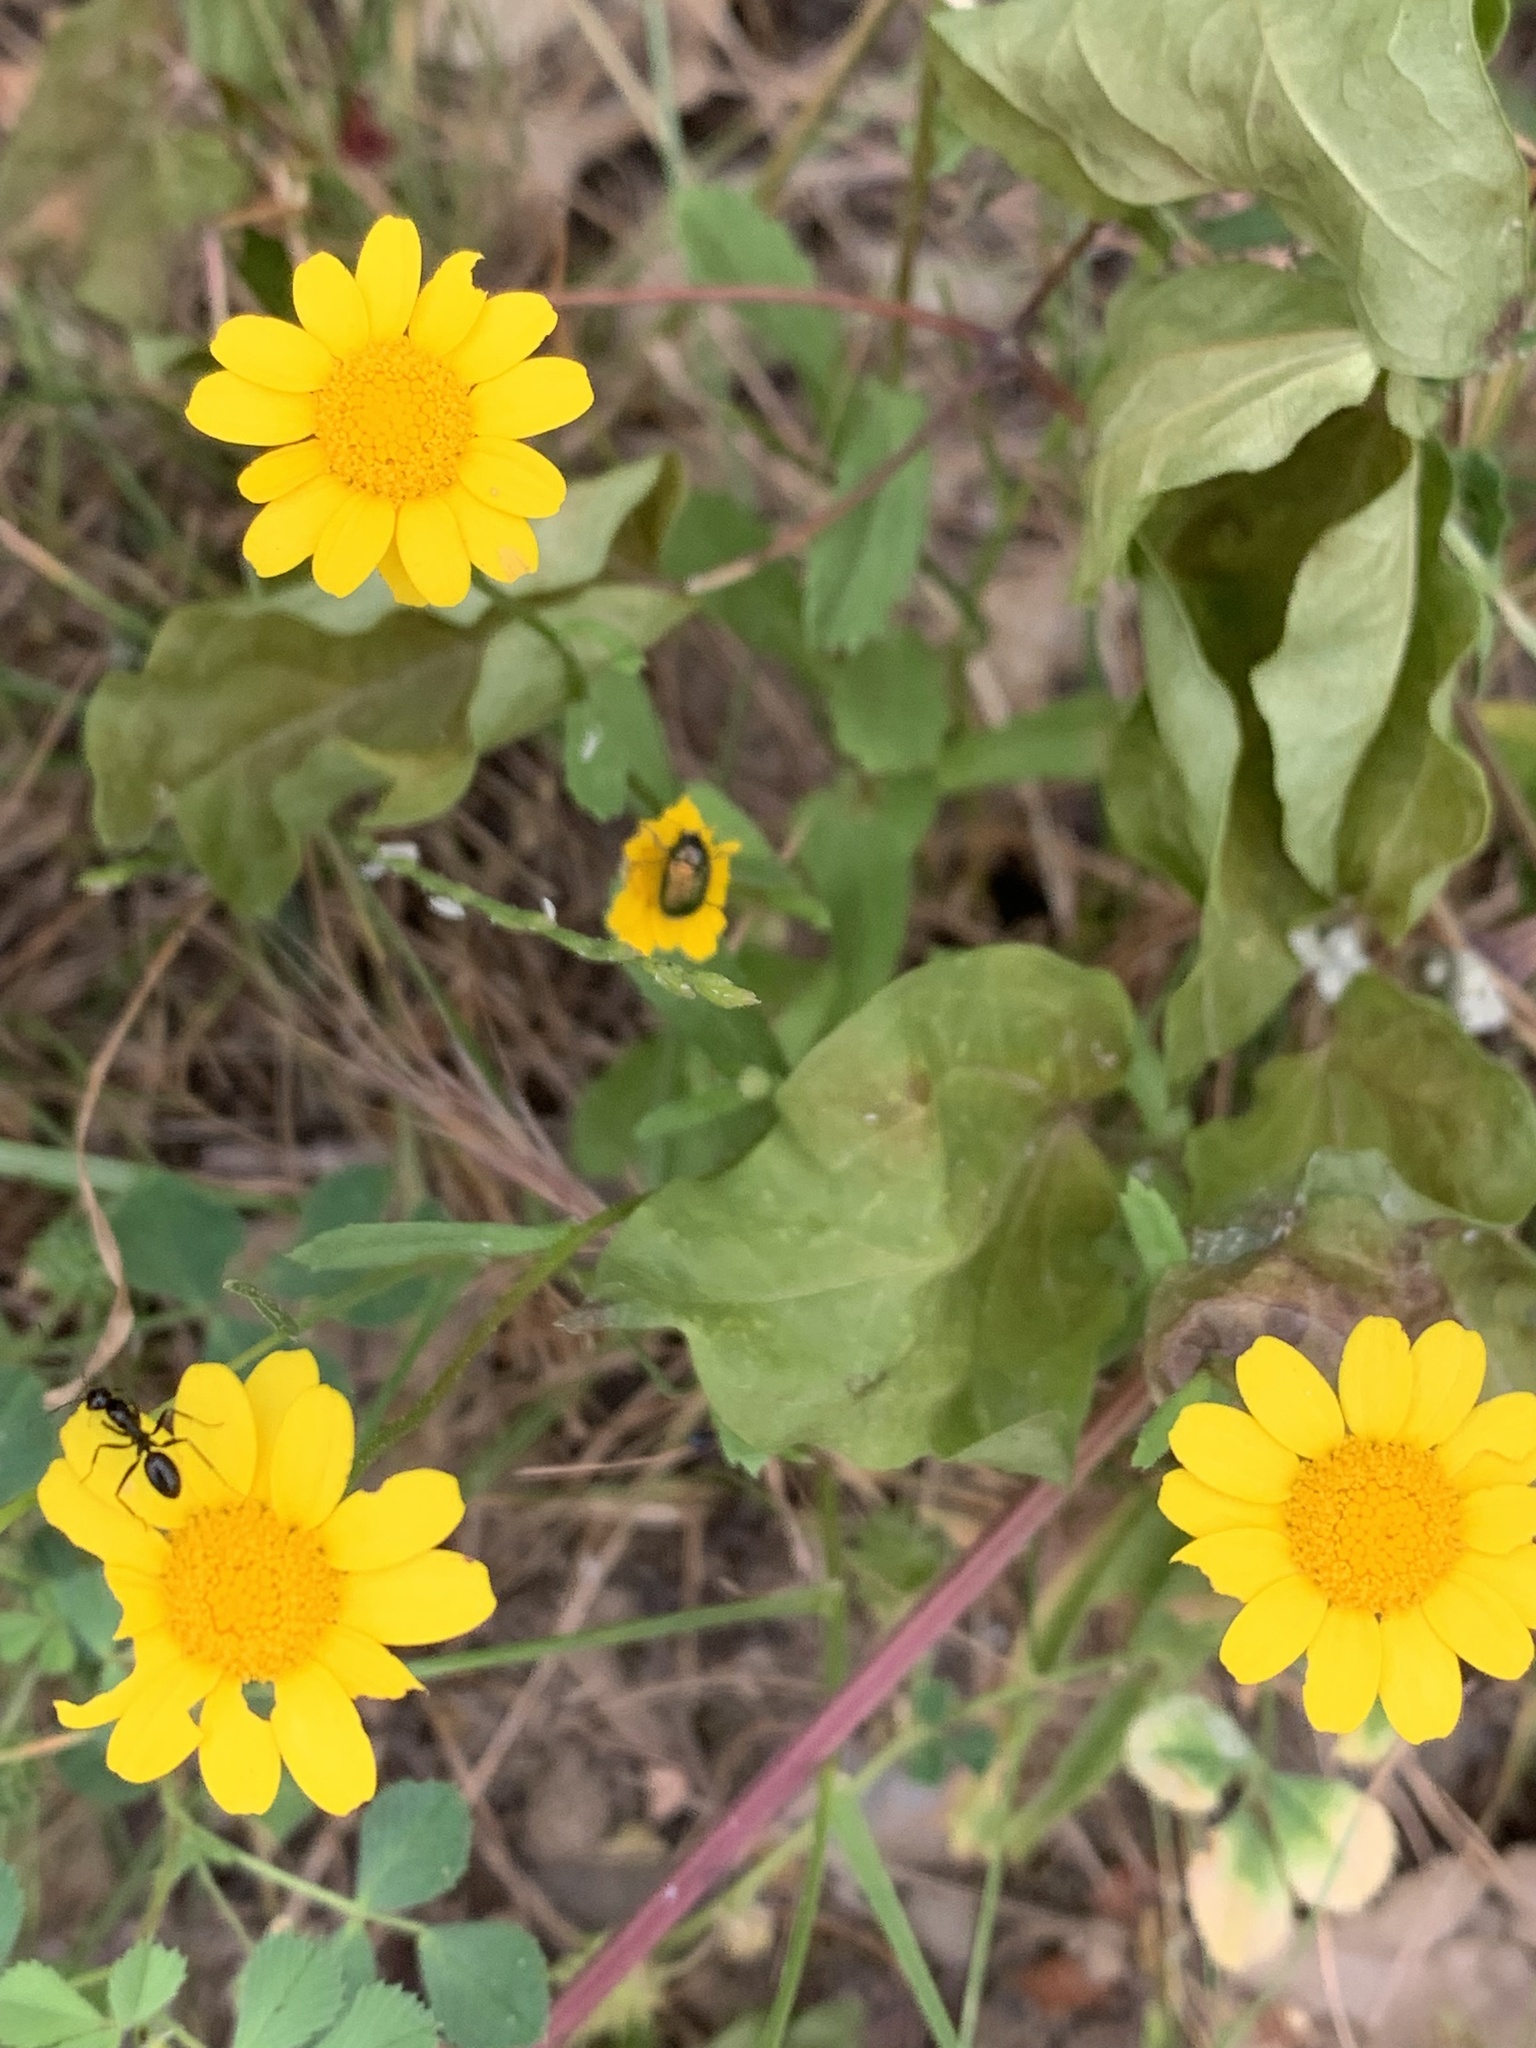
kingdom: Plantae
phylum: Tracheophyta
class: Magnoliopsida
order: Asterales
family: Asteraceae
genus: Glebionis
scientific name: Glebionis segetum
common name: Corndaisy
